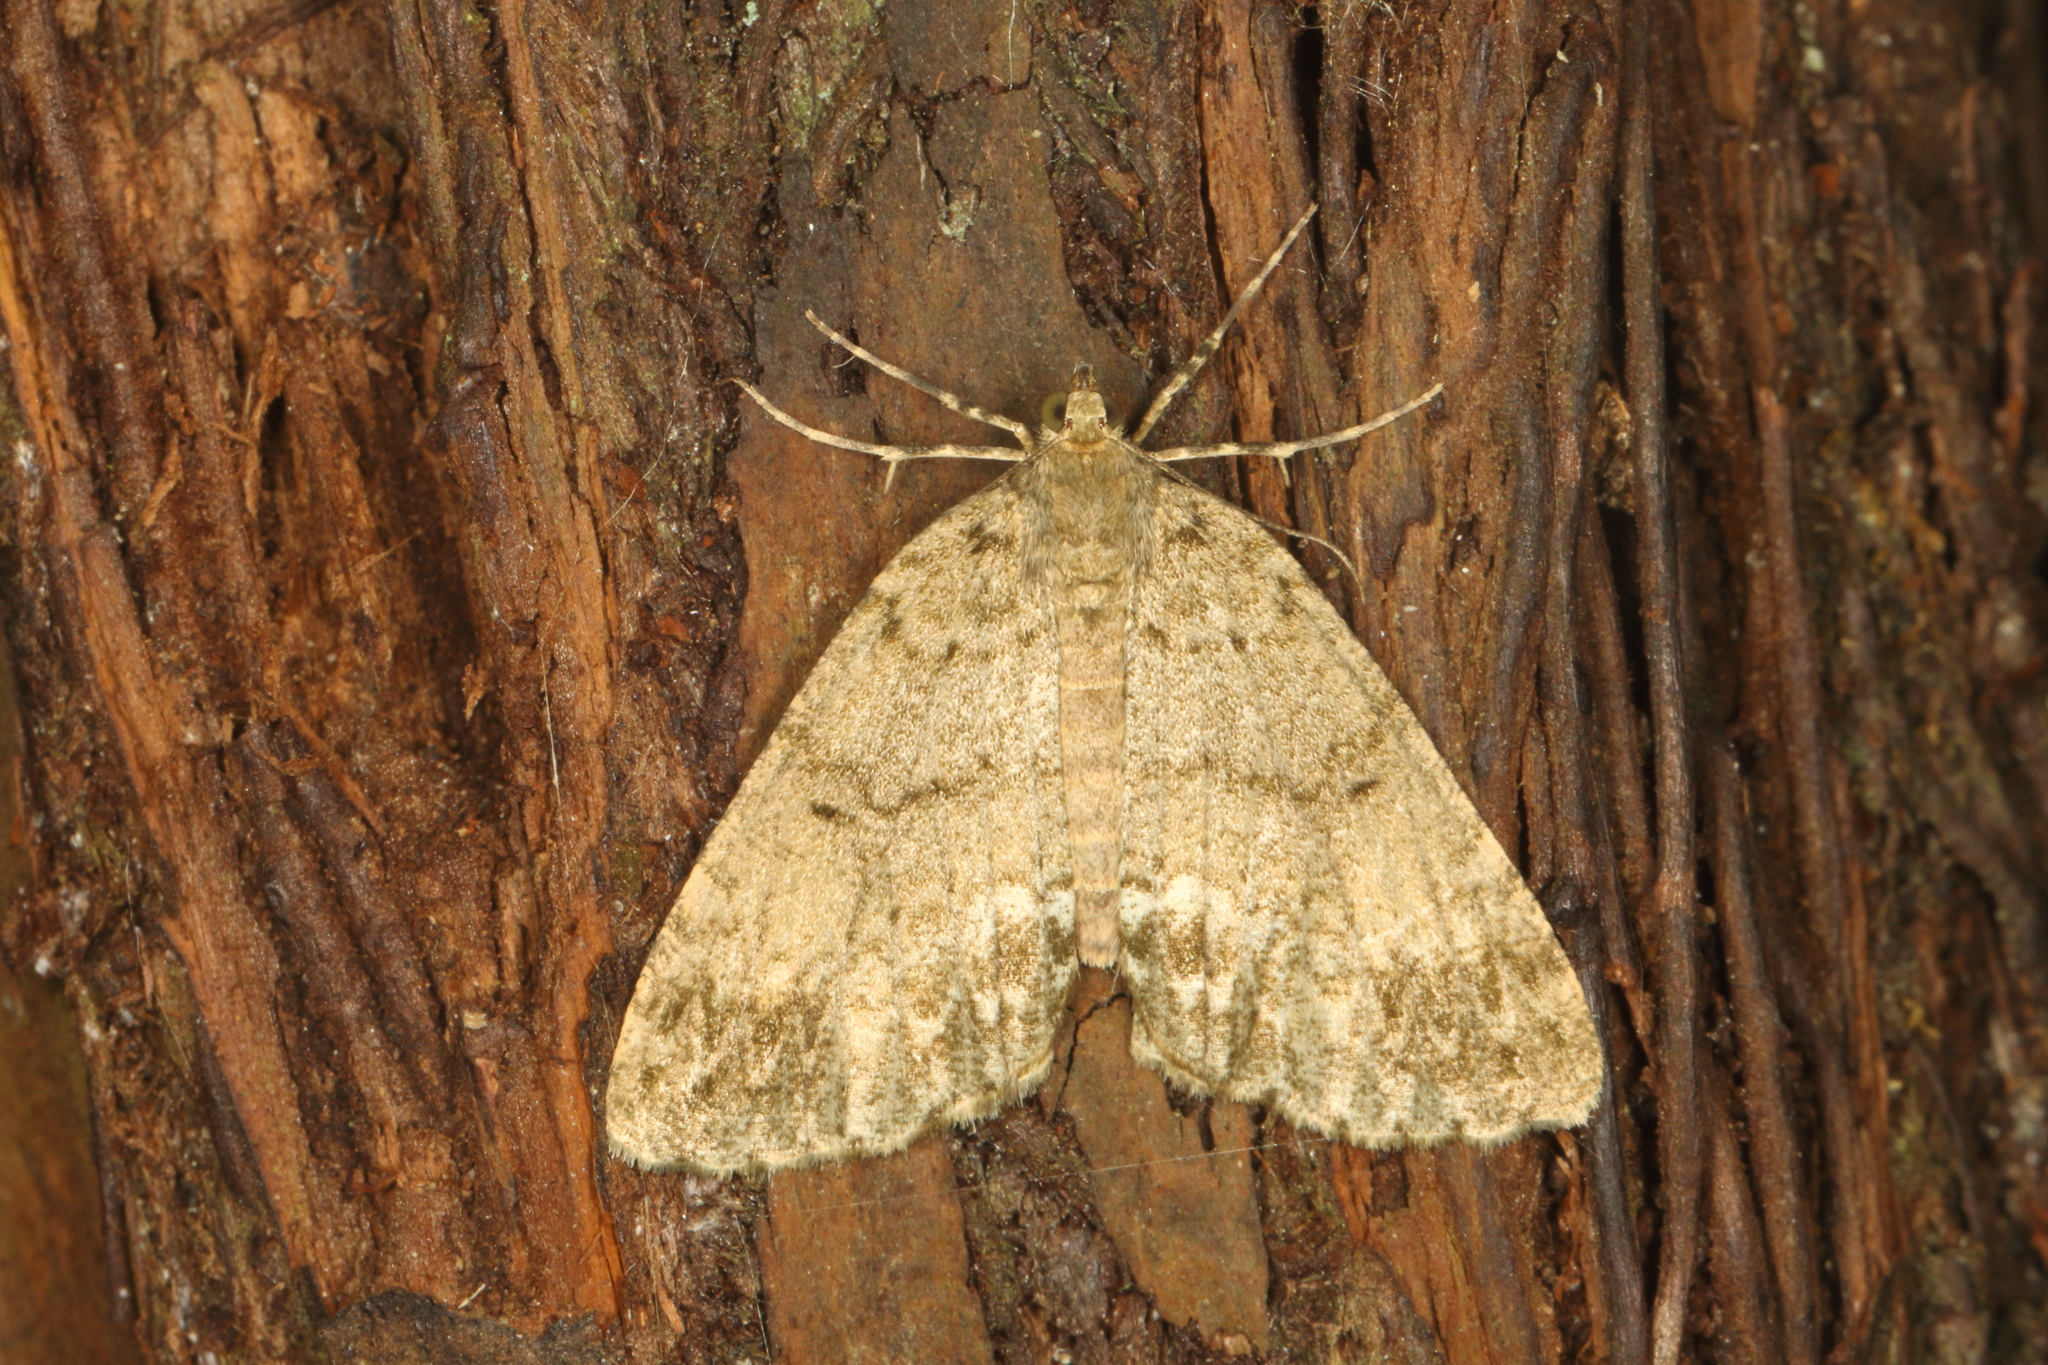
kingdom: Animalia
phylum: Arthropoda
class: Insecta
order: Lepidoptera
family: Geometridae
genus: Pseudocoremia
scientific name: Pseudocoremia indistincta
